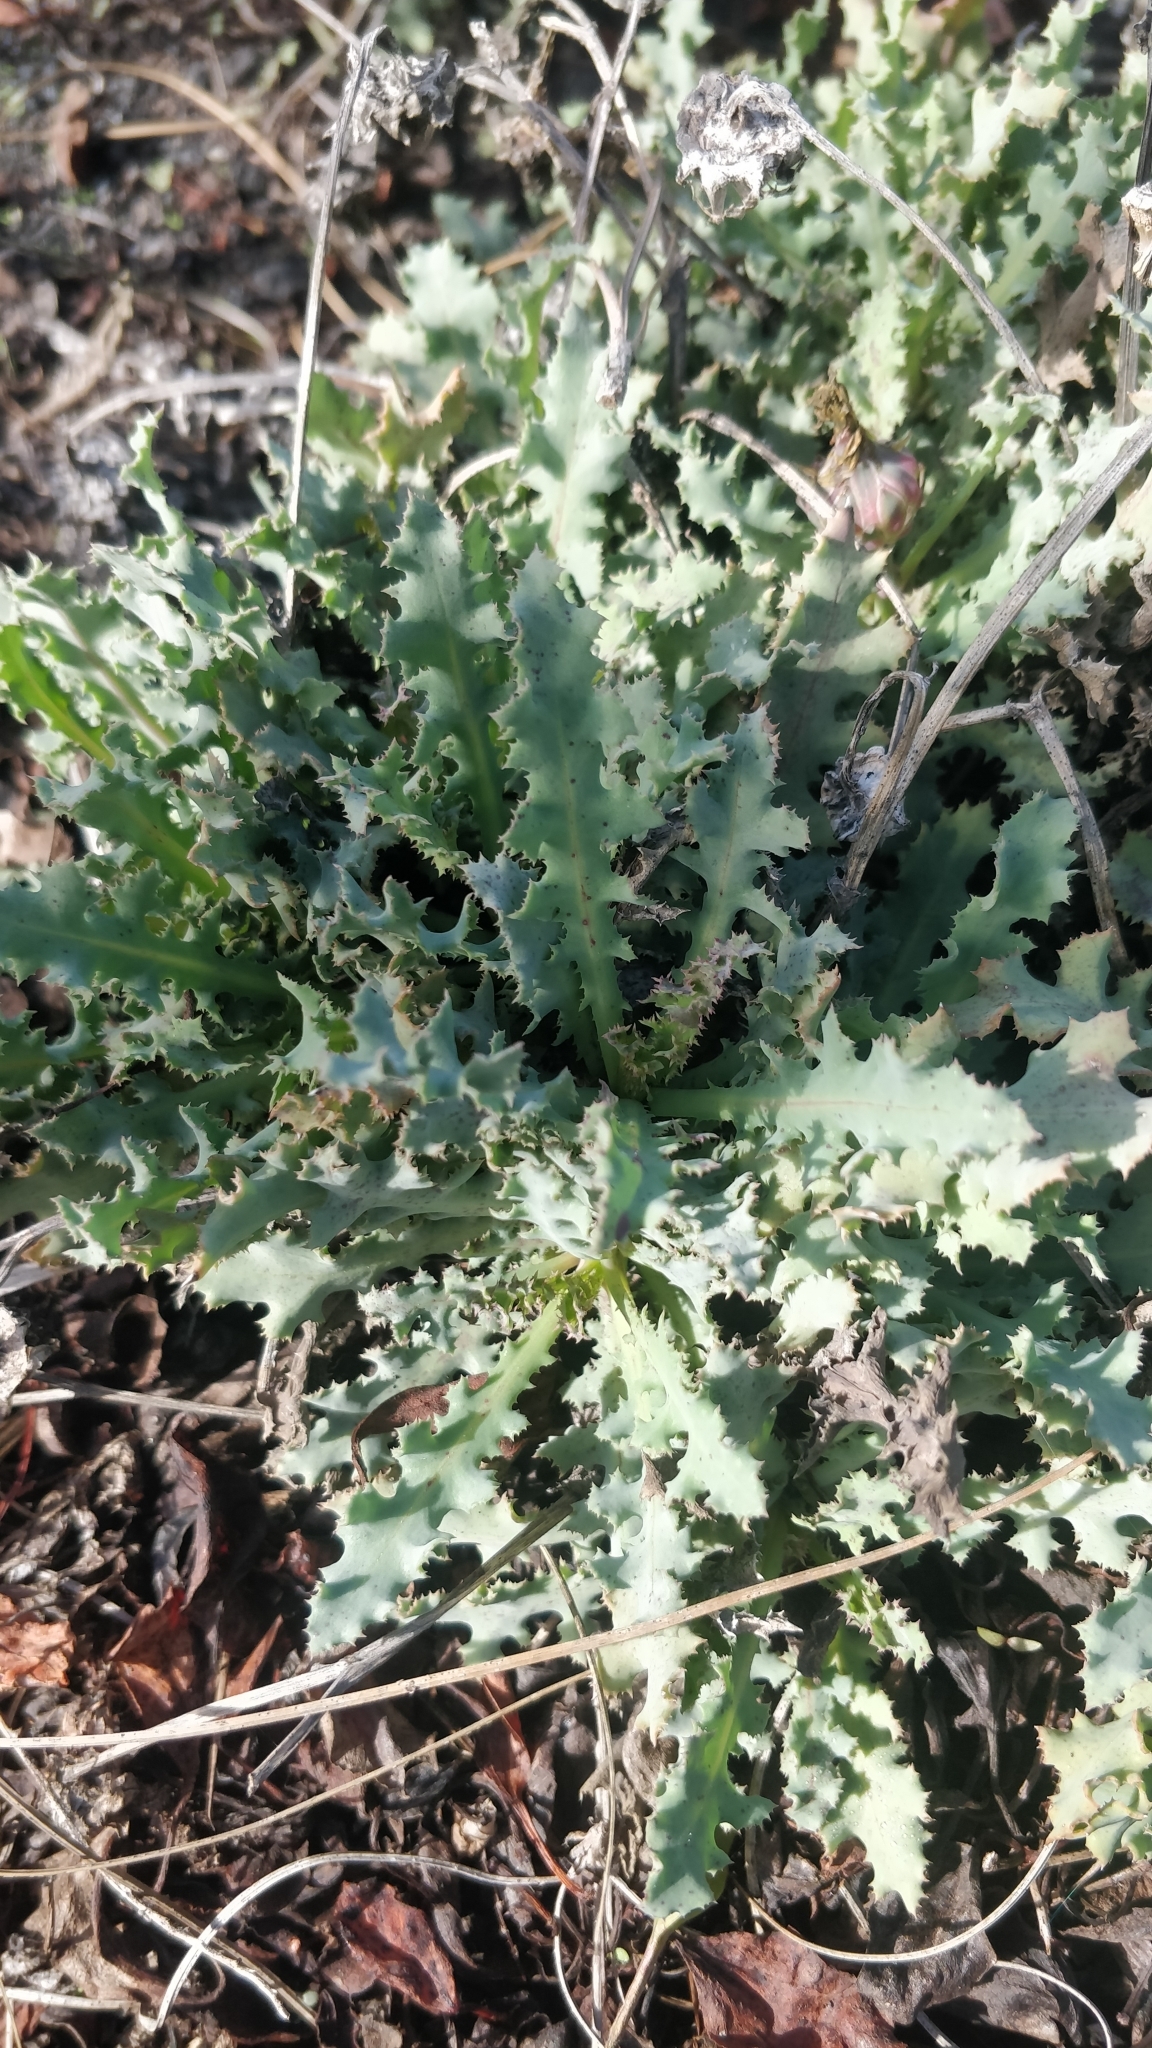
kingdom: Plantae
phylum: Tracheophyta
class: Magnoliopsida
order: Asterales
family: Asteraceae
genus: Reichardia
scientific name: Reichardia ligulata
